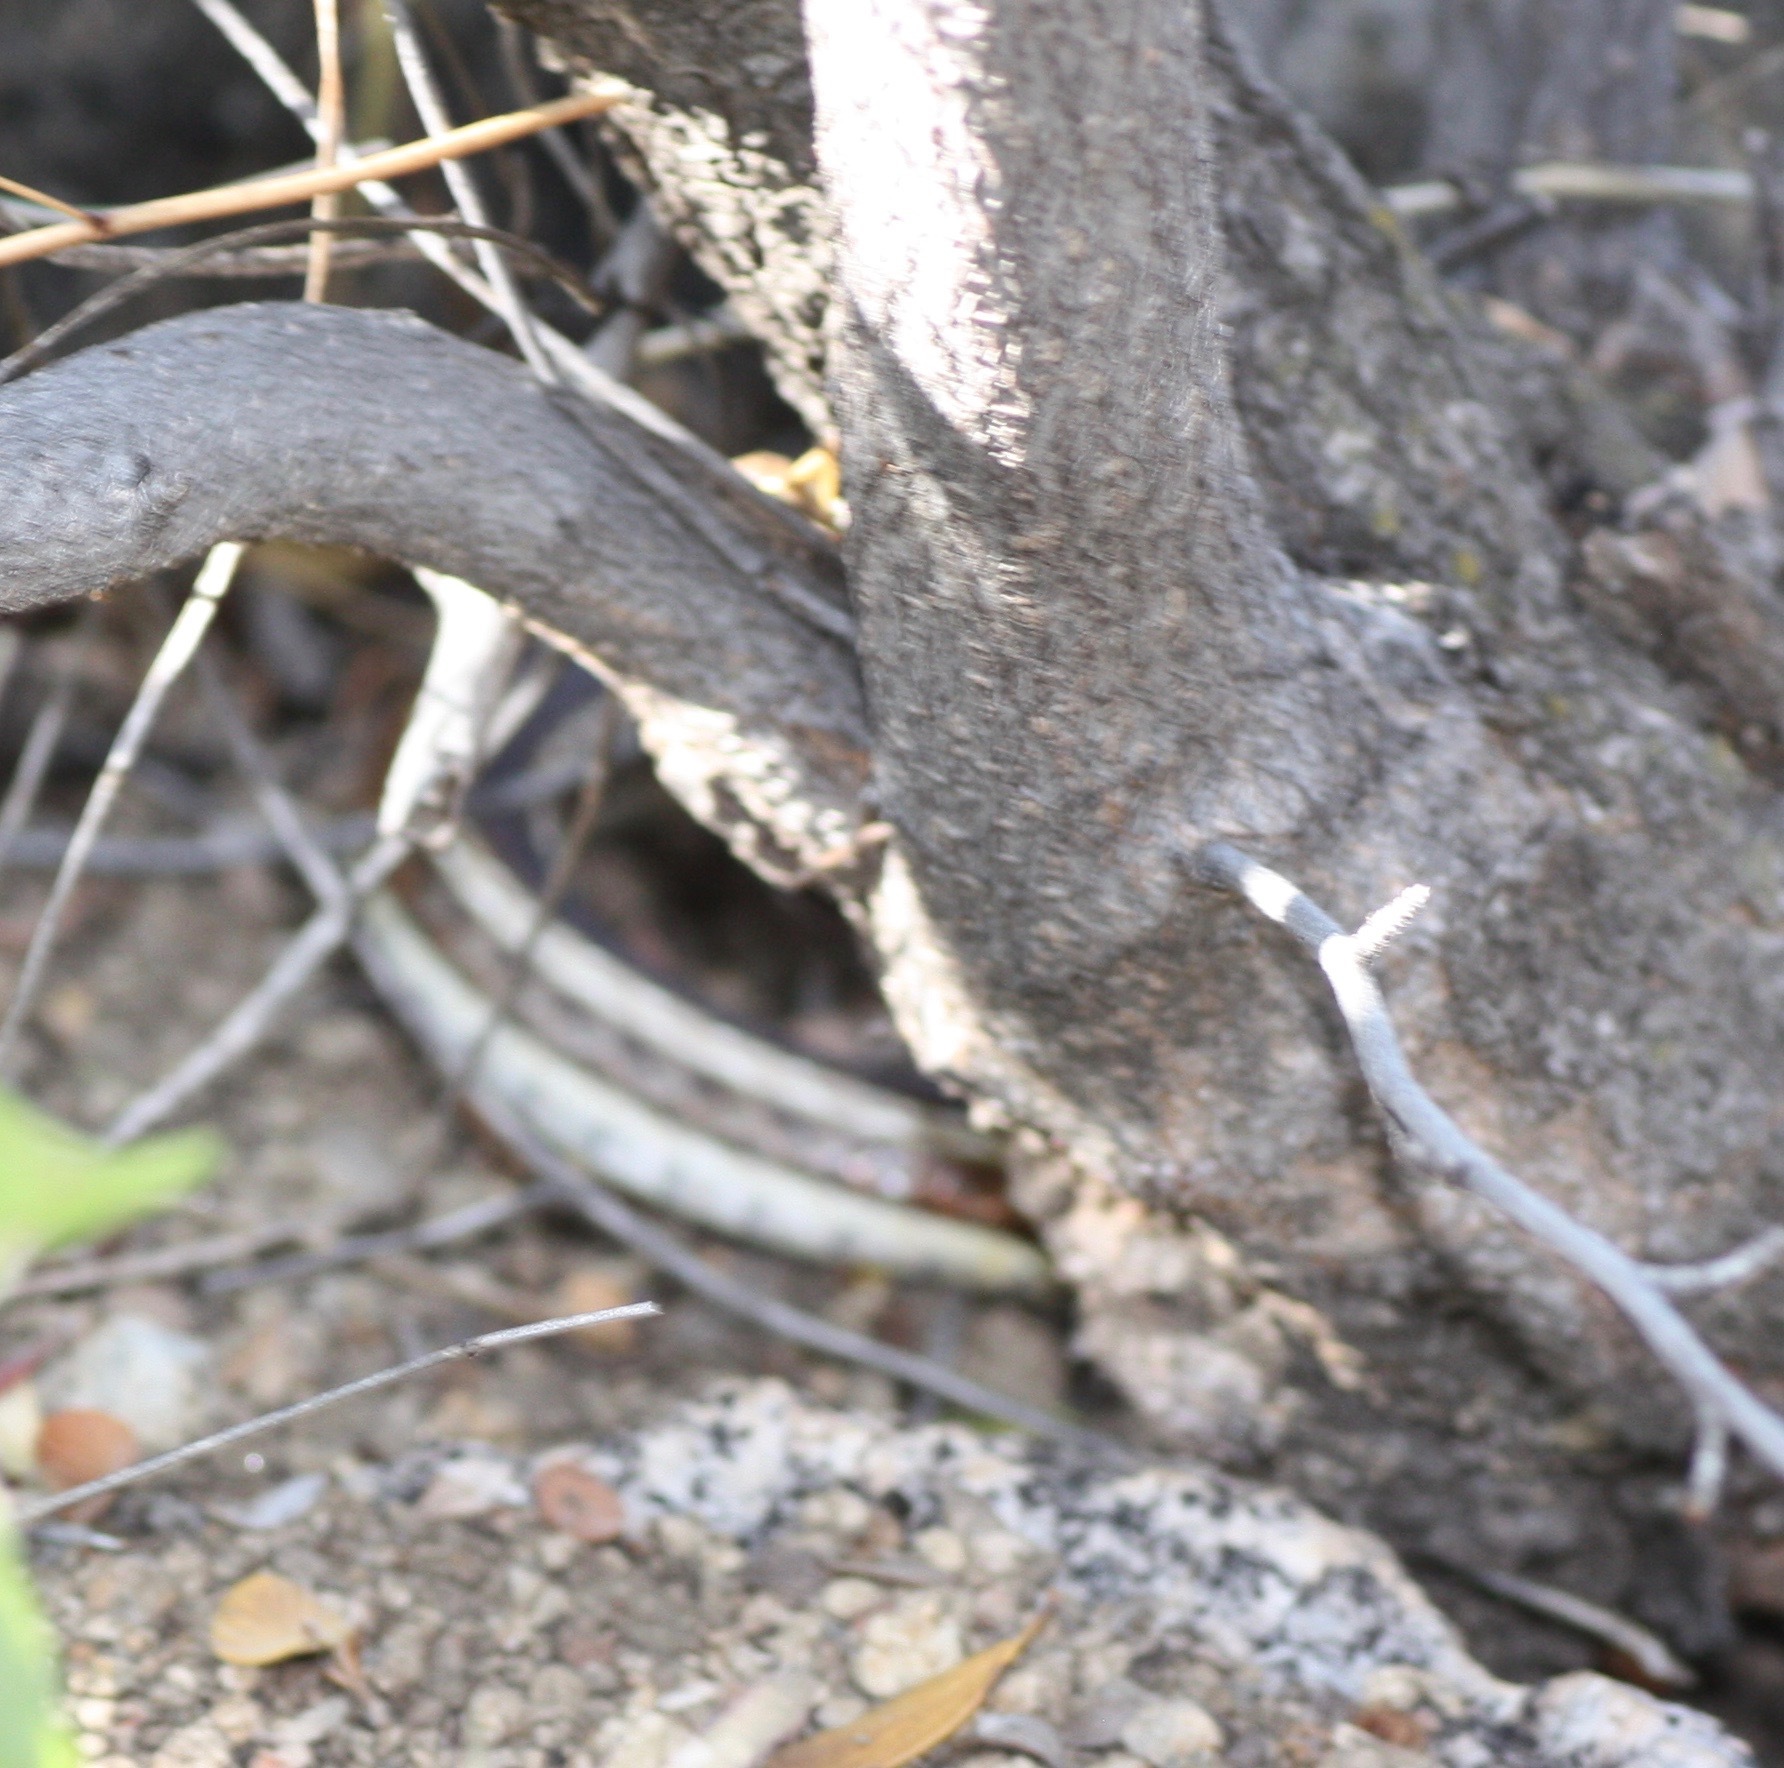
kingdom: Animalia
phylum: Chordata
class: Squamata
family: Colubridae
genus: Thamnophis
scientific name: Thamnophis sirtalis
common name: Common garter snake
